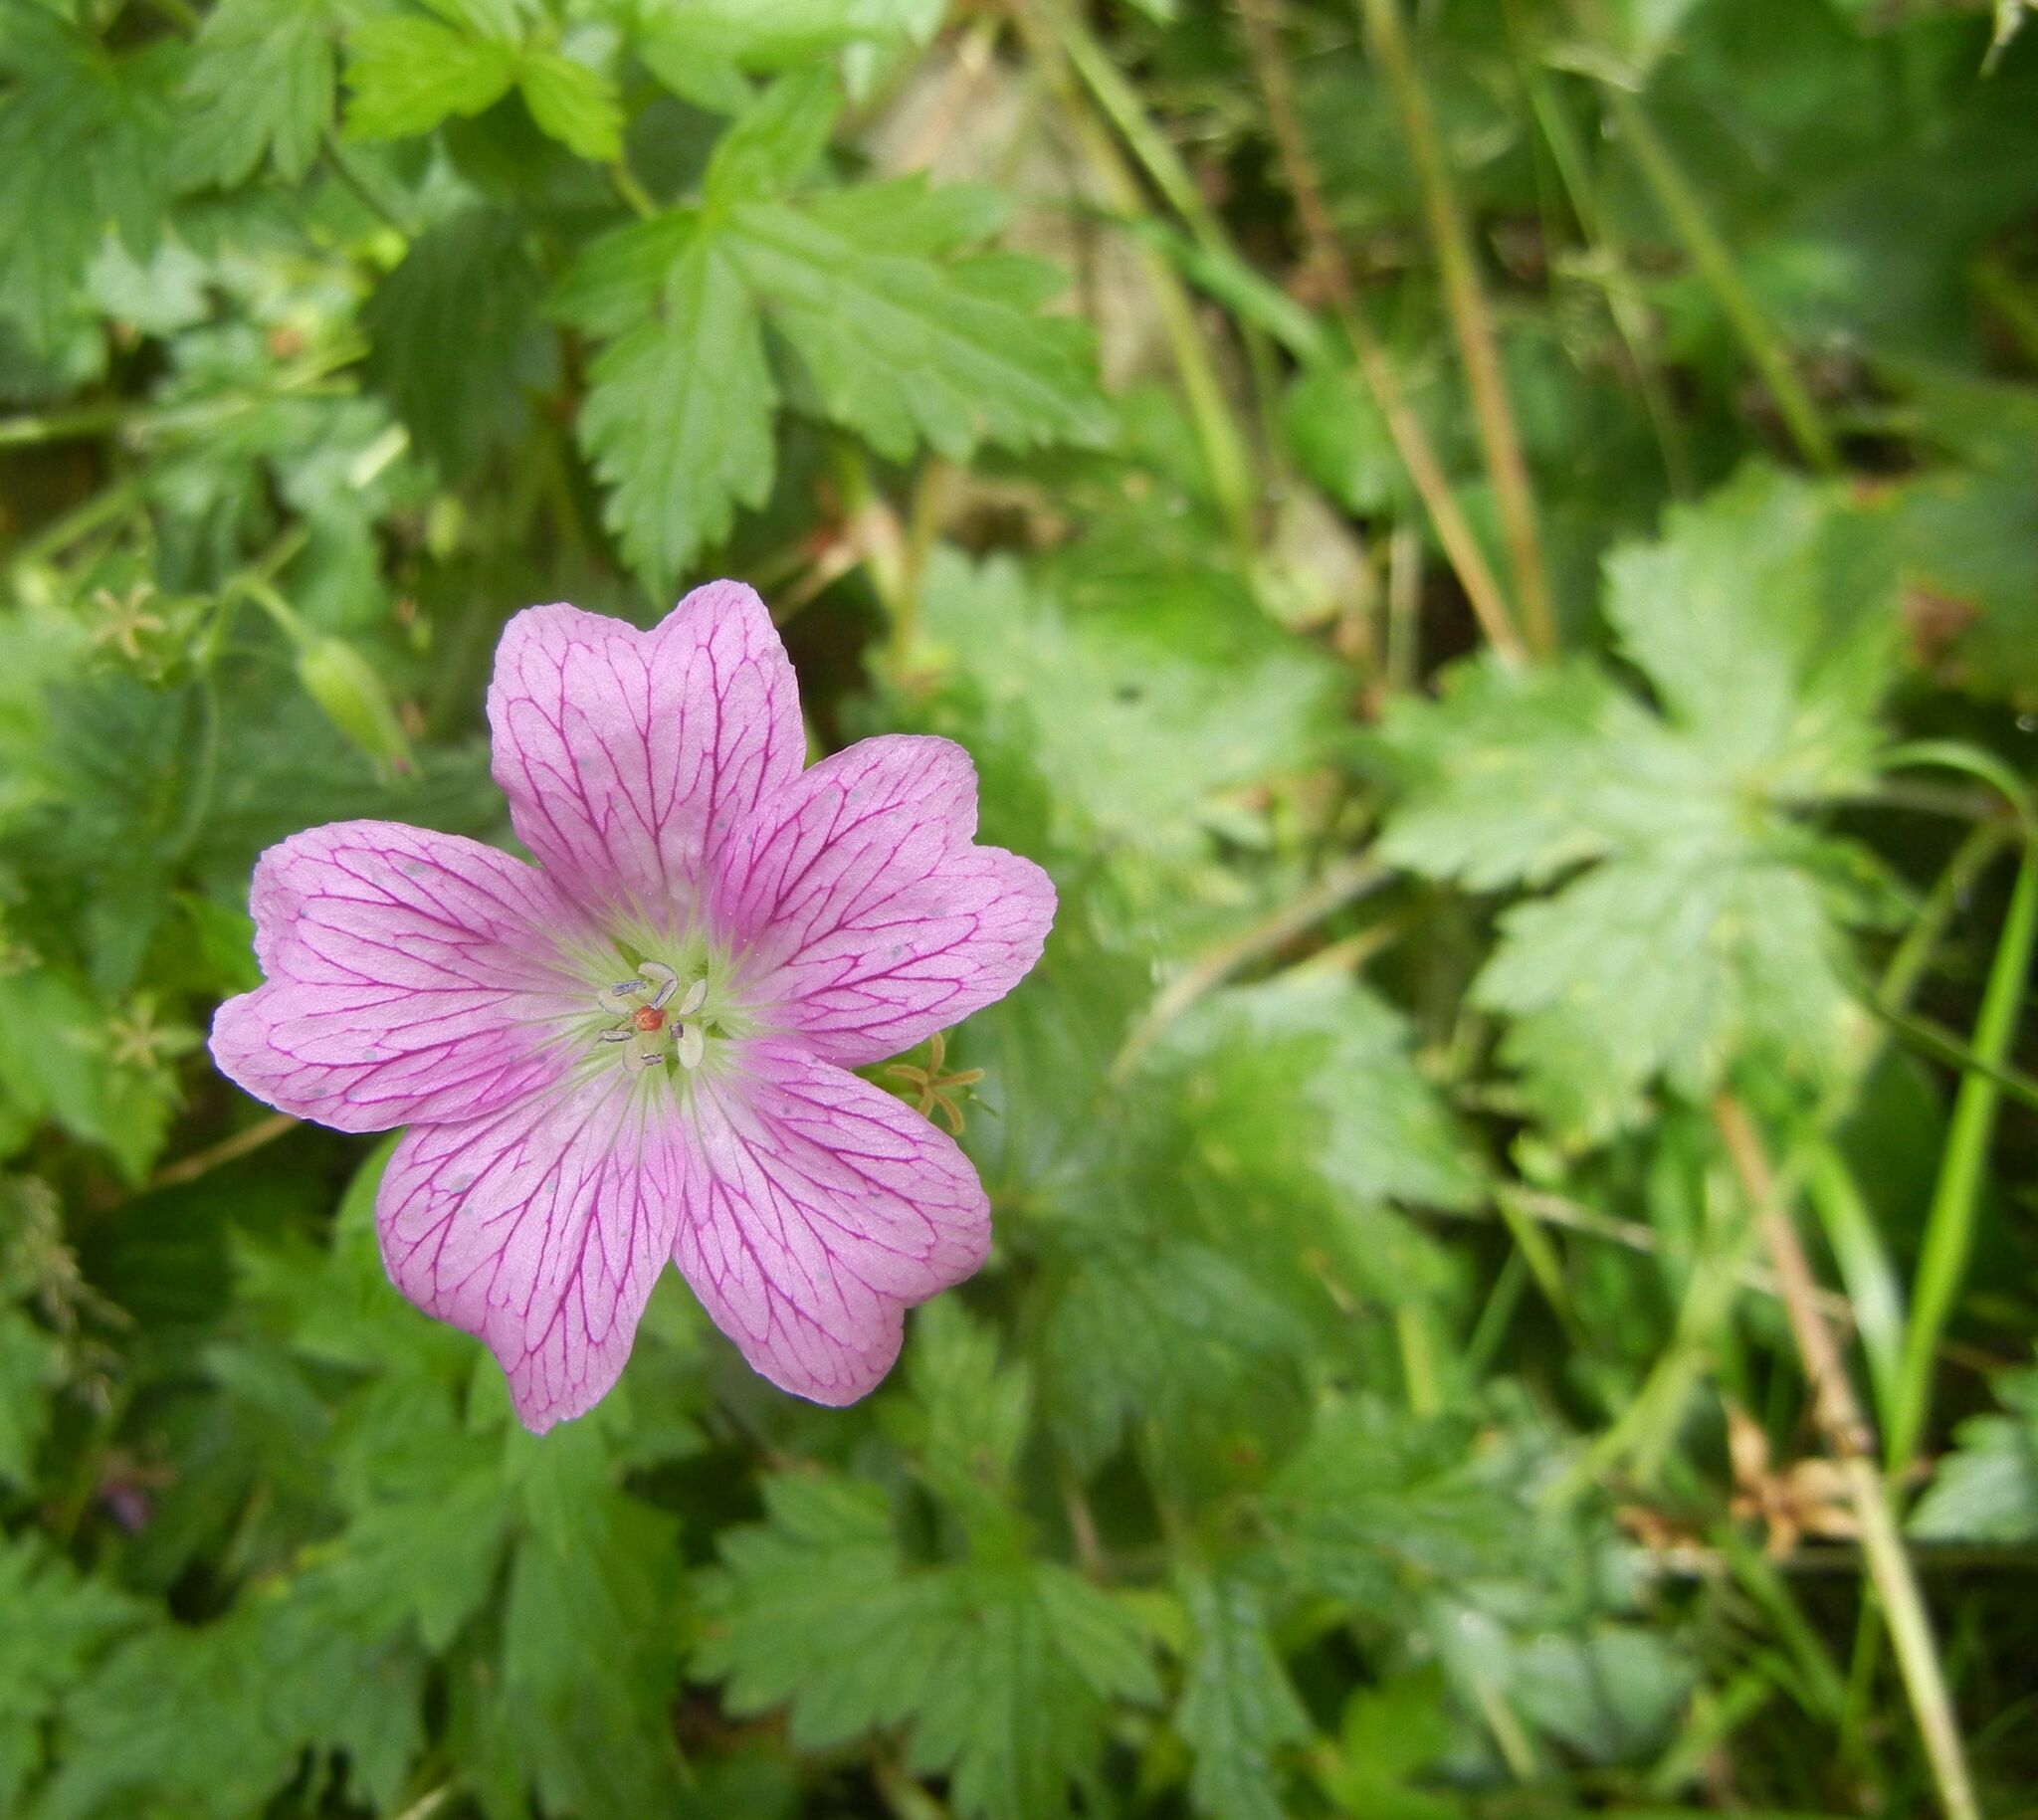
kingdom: Plantae
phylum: Tracheophyta
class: Magnoliopsida
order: Geraniales
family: Geraniaceae
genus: Geranium
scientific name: Geranium oxonianum
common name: Druce's crane's-bill
